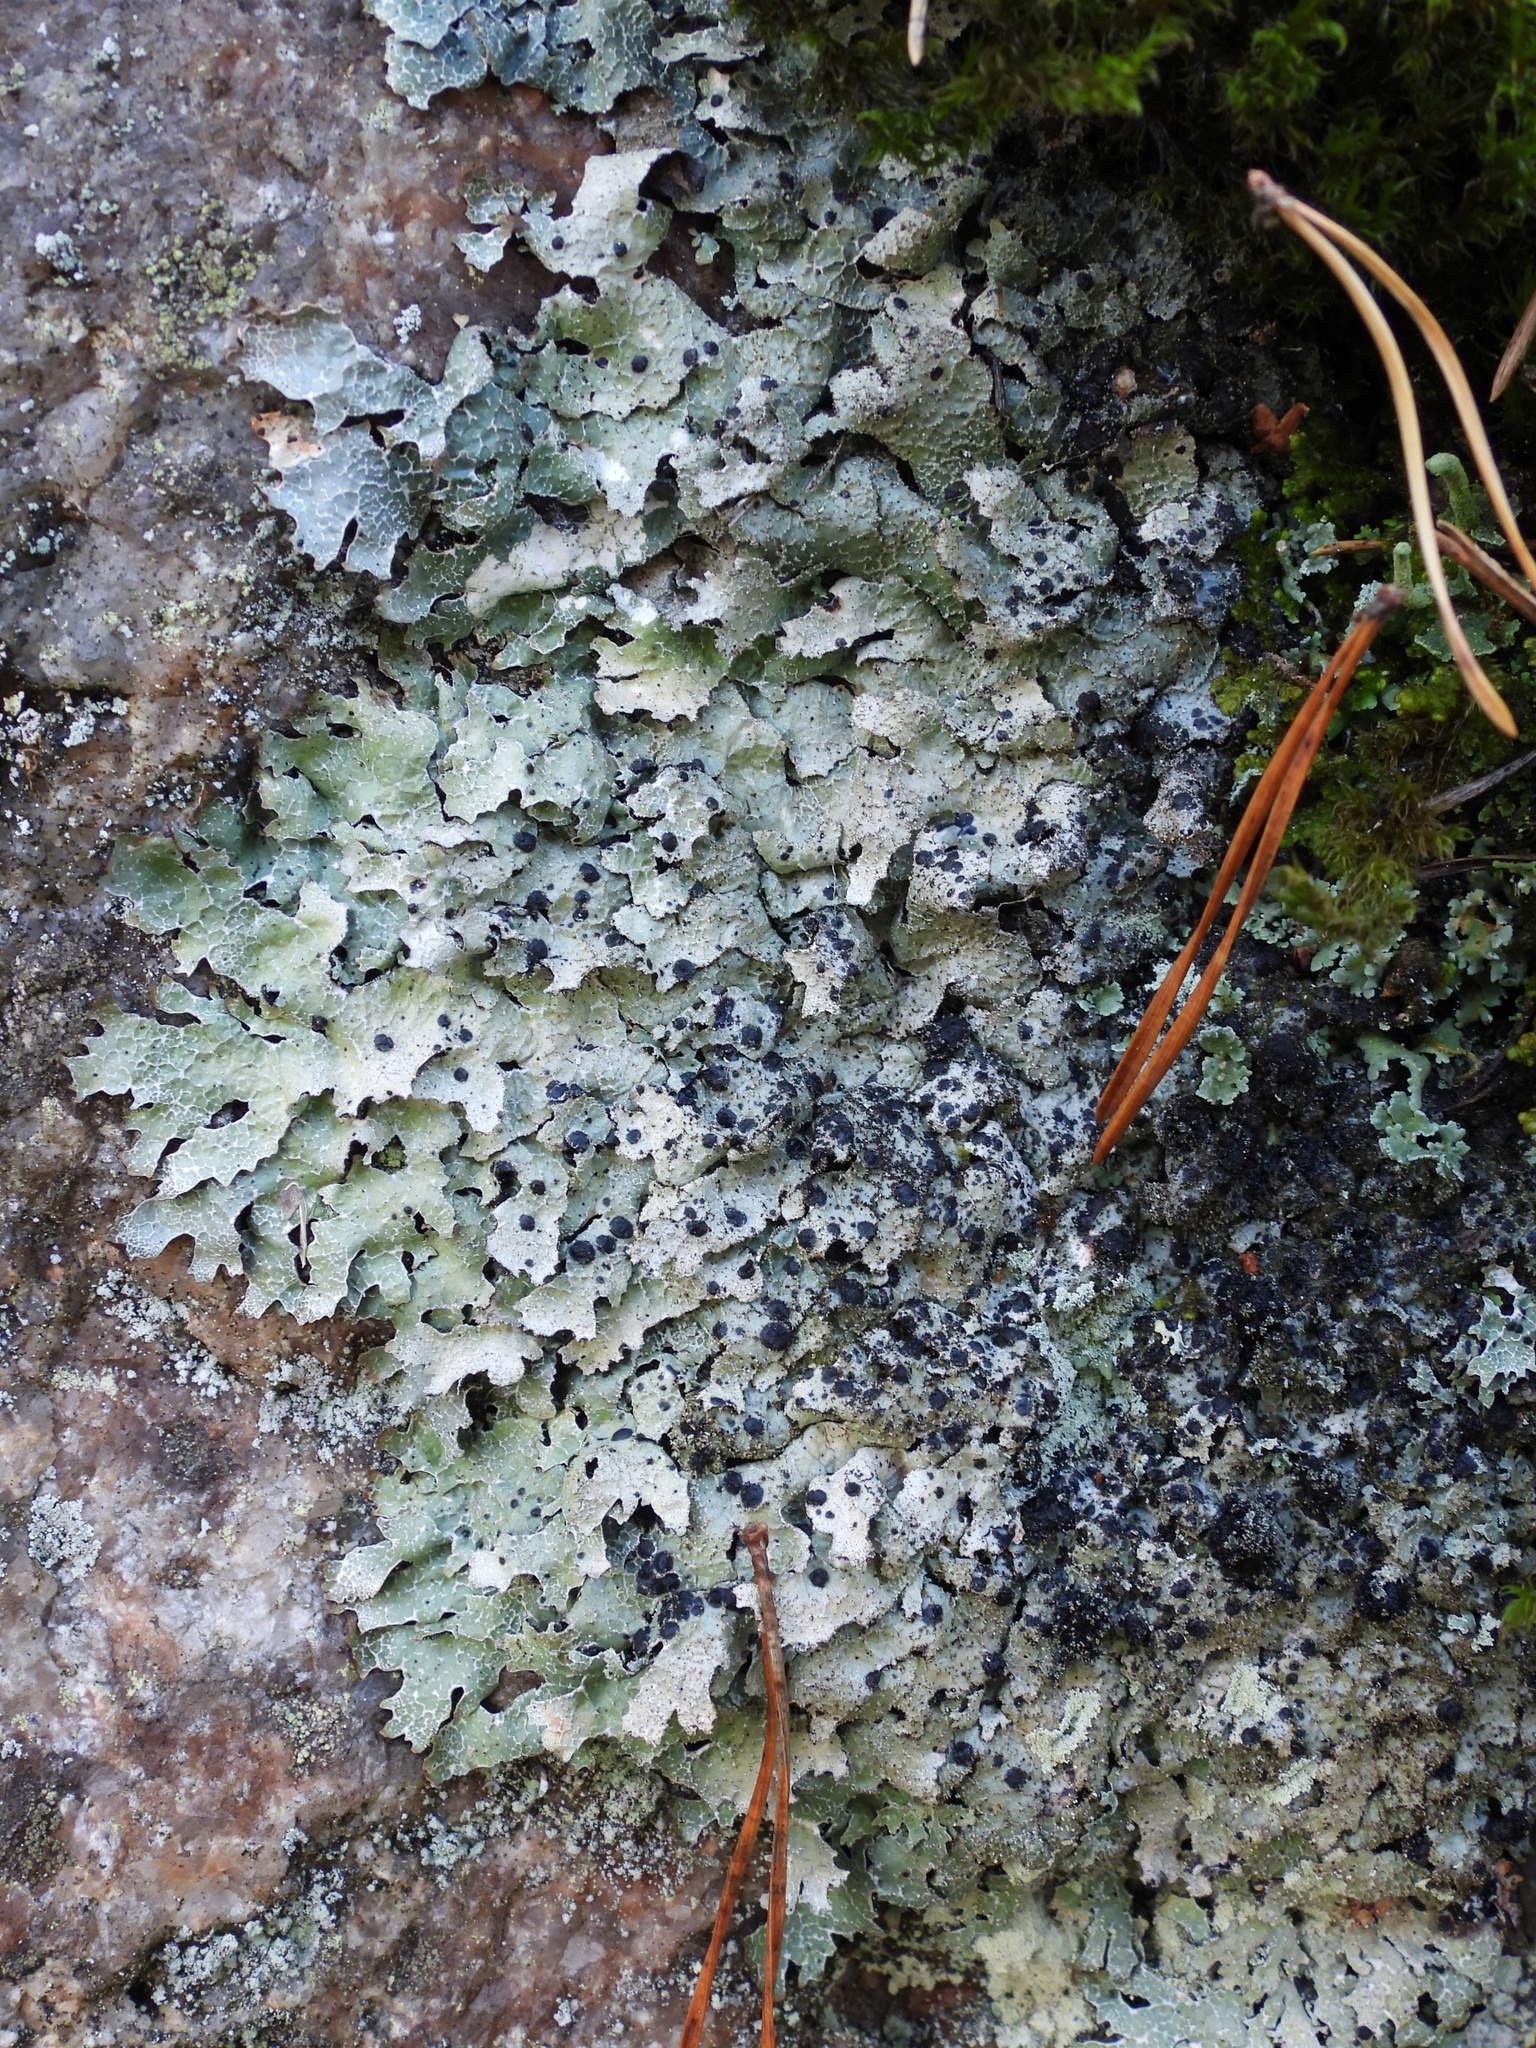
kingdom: Fungi
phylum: Ascomycota
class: Dothideomycetes
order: Dothideales
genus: Homostegia
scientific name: Homostegia piggotii
